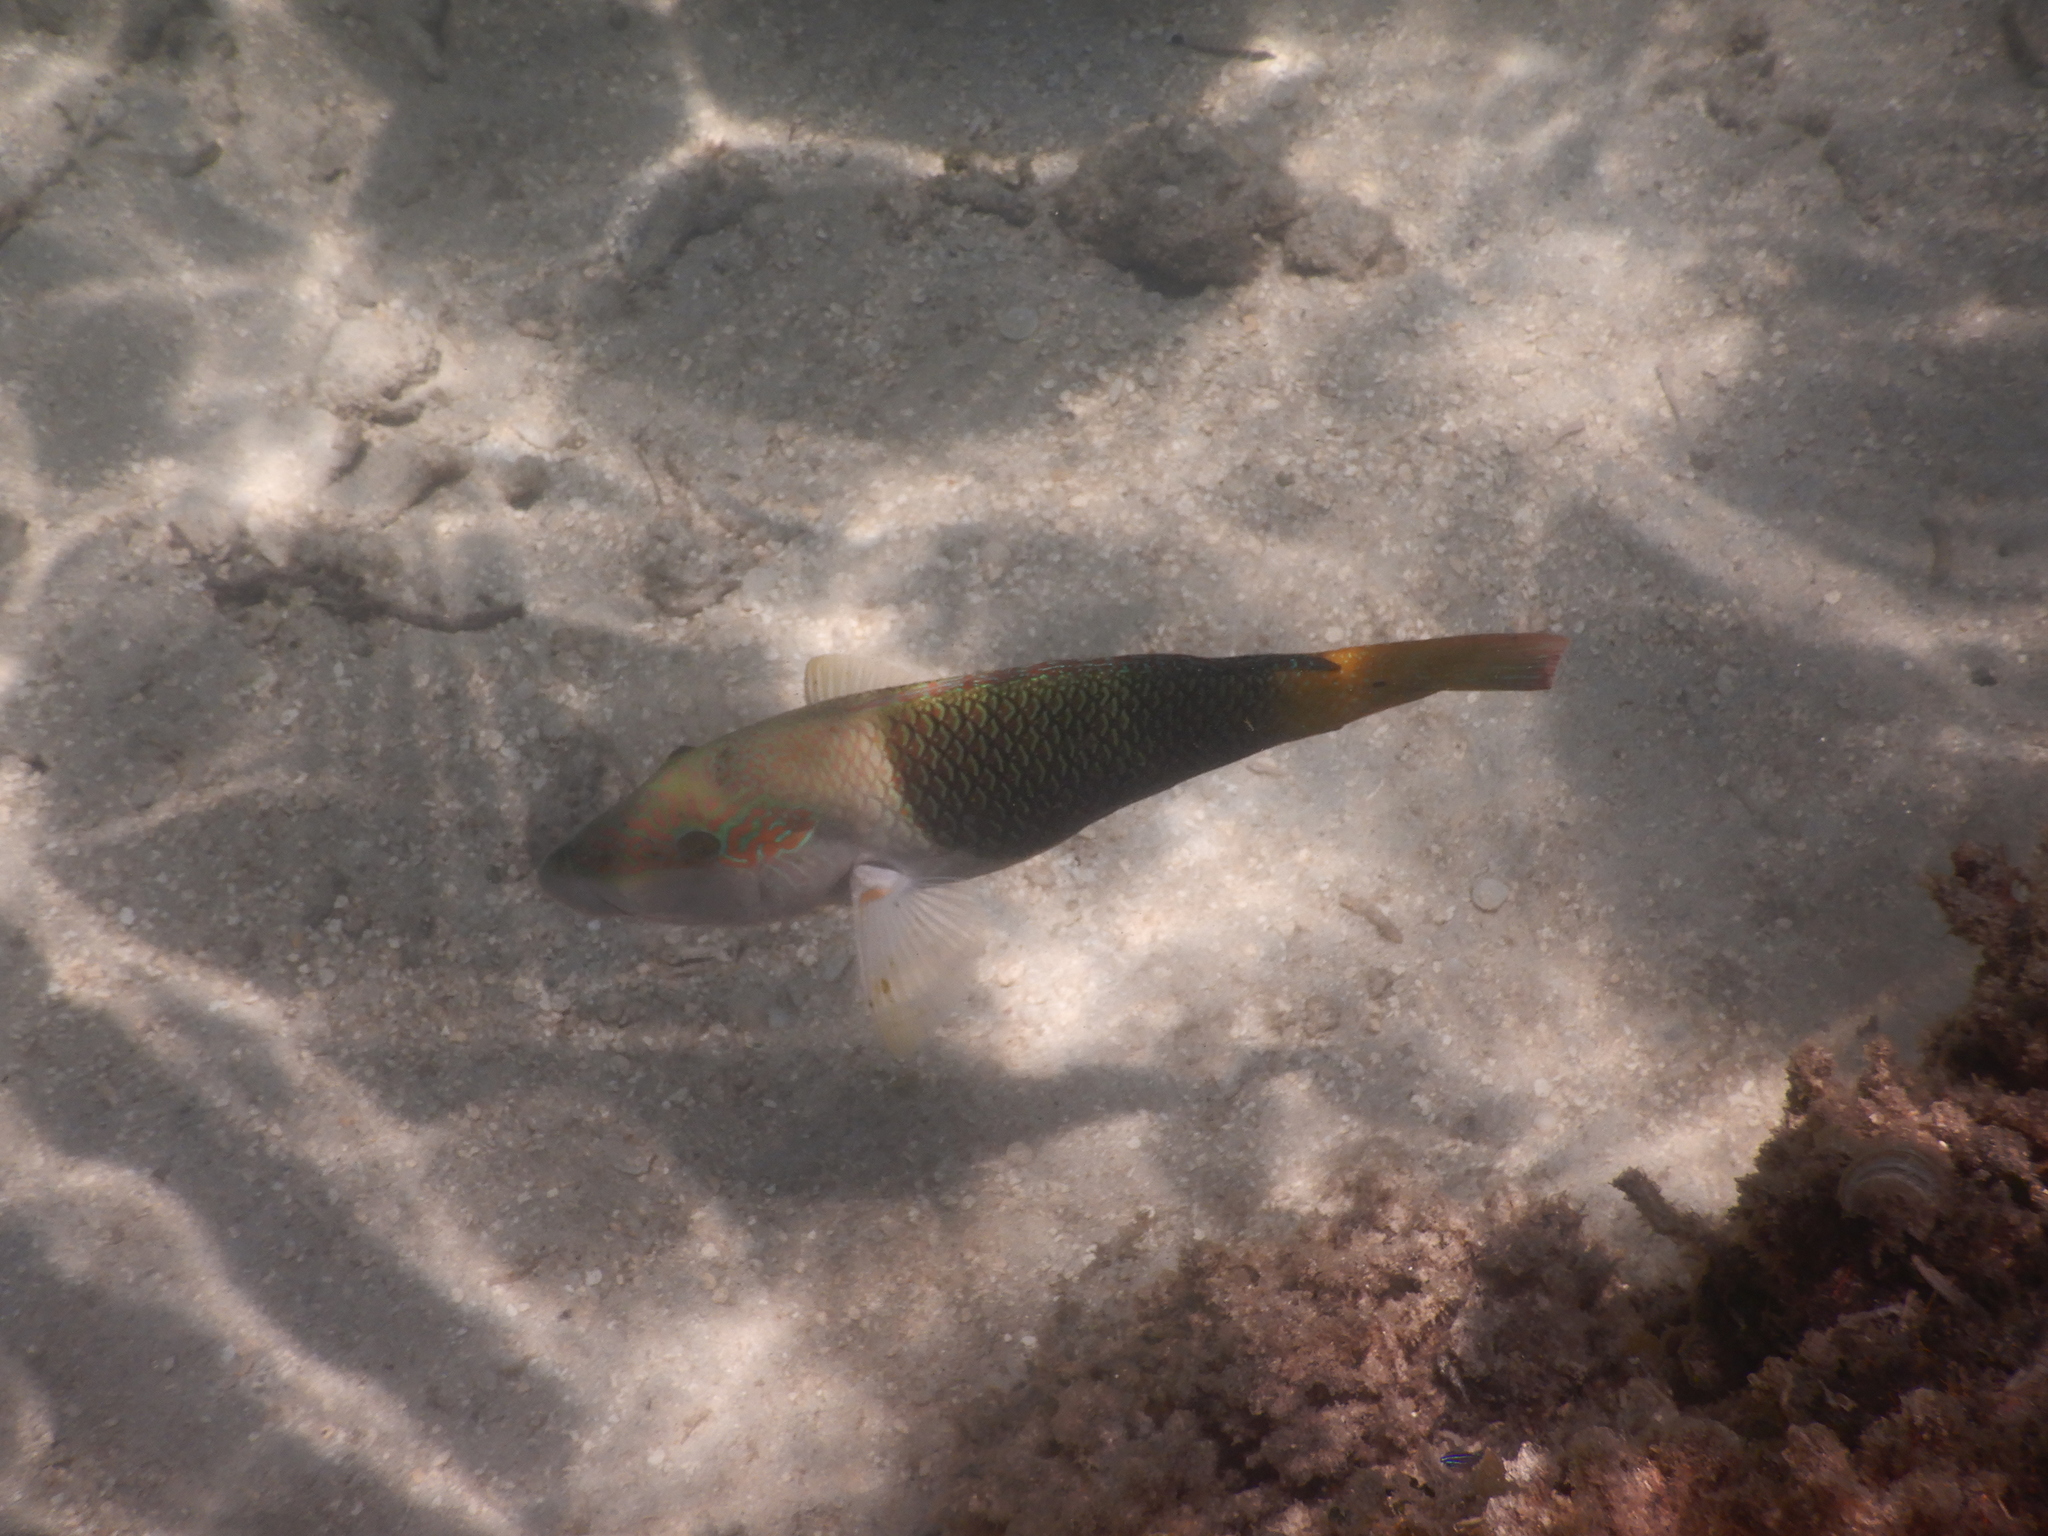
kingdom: Animalia
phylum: Chordata
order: Perciformes
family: Labridae
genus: Hemigymnus
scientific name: Hemigymnus melapterus
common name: Blackeye thicklip
